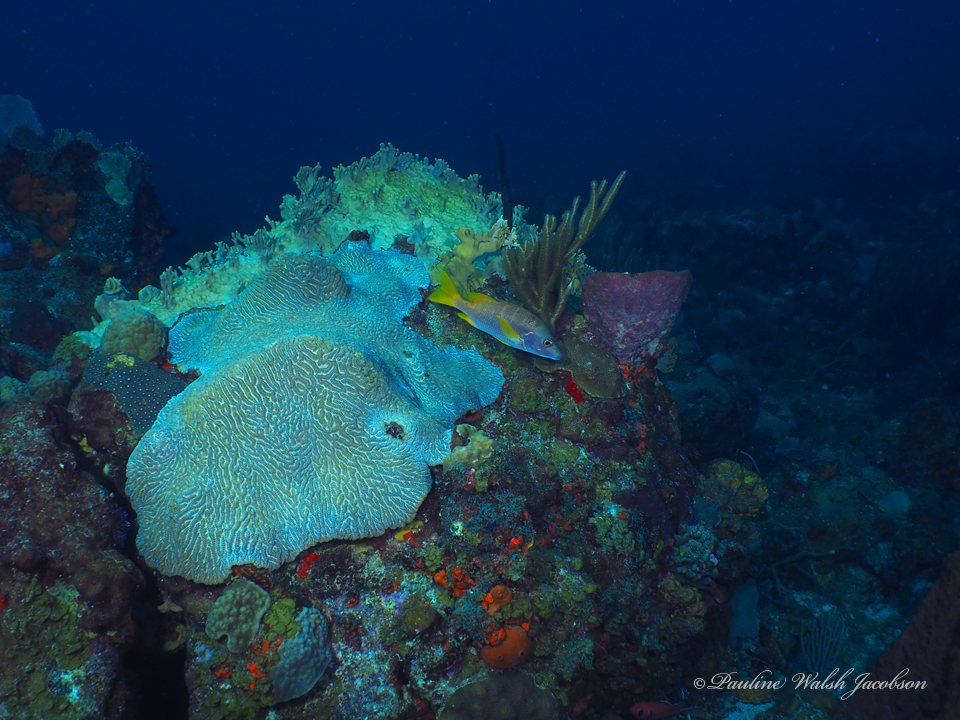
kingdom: Animalia
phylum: Chordata
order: Perciformes
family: Lutjanidae
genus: Lutjanus
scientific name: Lutjanus apodus
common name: Schoolmaster
